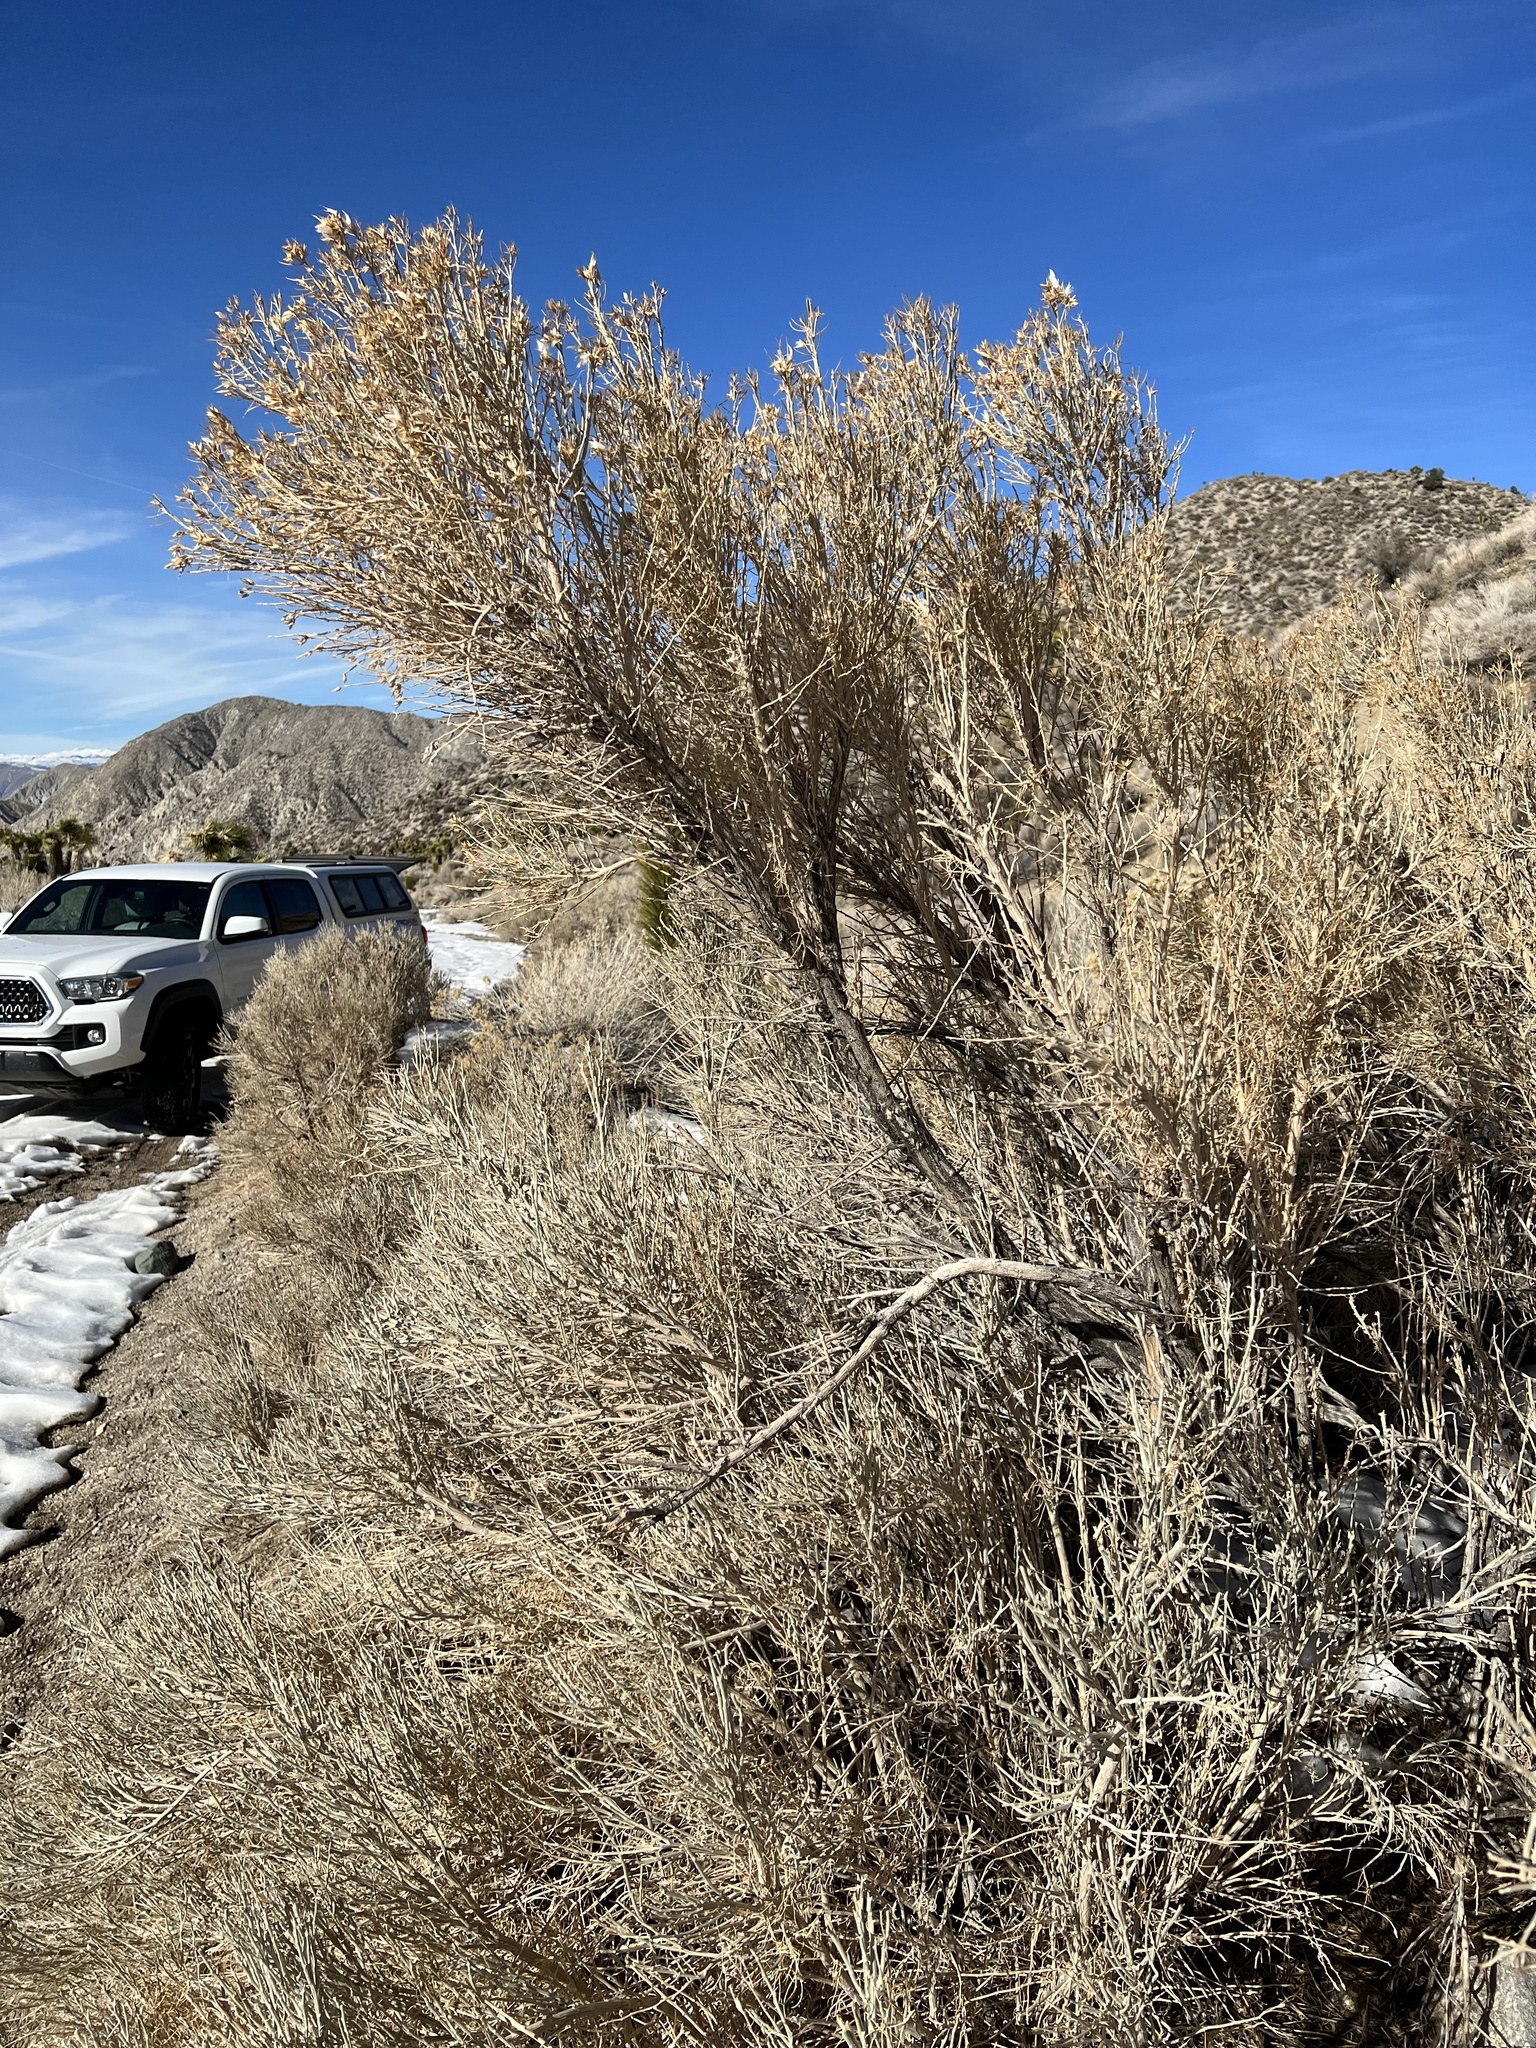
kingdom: Plantae
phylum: Tracheophyta
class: Magnoliopsida
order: Asterales
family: Asteraceae
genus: Lepidospartum
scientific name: Lepidospartum latisquamum
